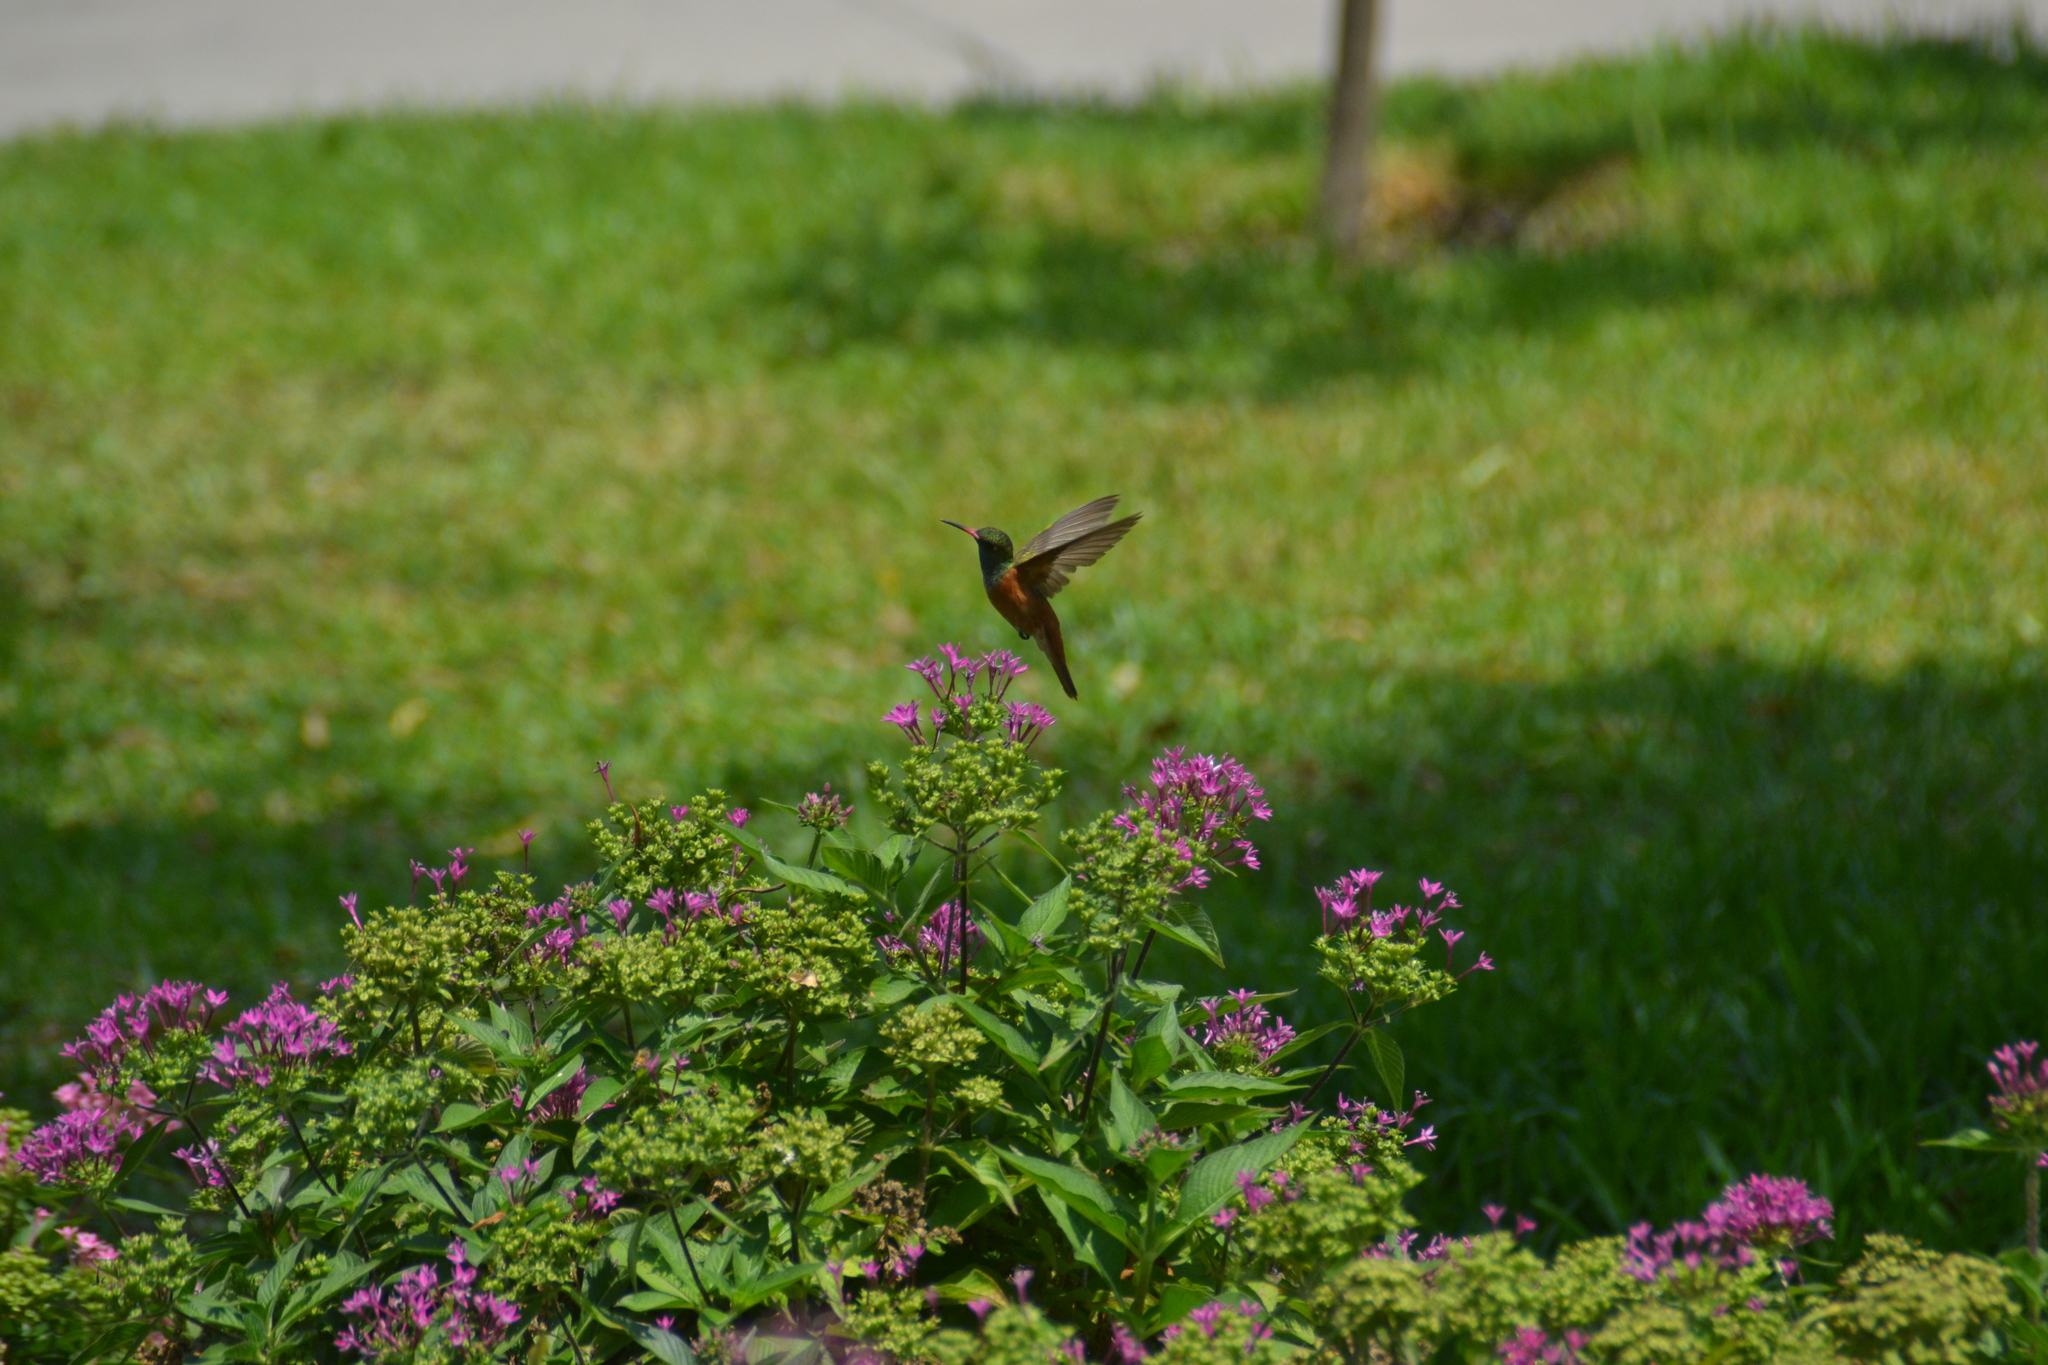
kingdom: Animalia
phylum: Chordata
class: Aves
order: Apodiformes
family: Trochilidae
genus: Amazilis
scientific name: Amazilis amazilia
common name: Amazilia hummingbird
